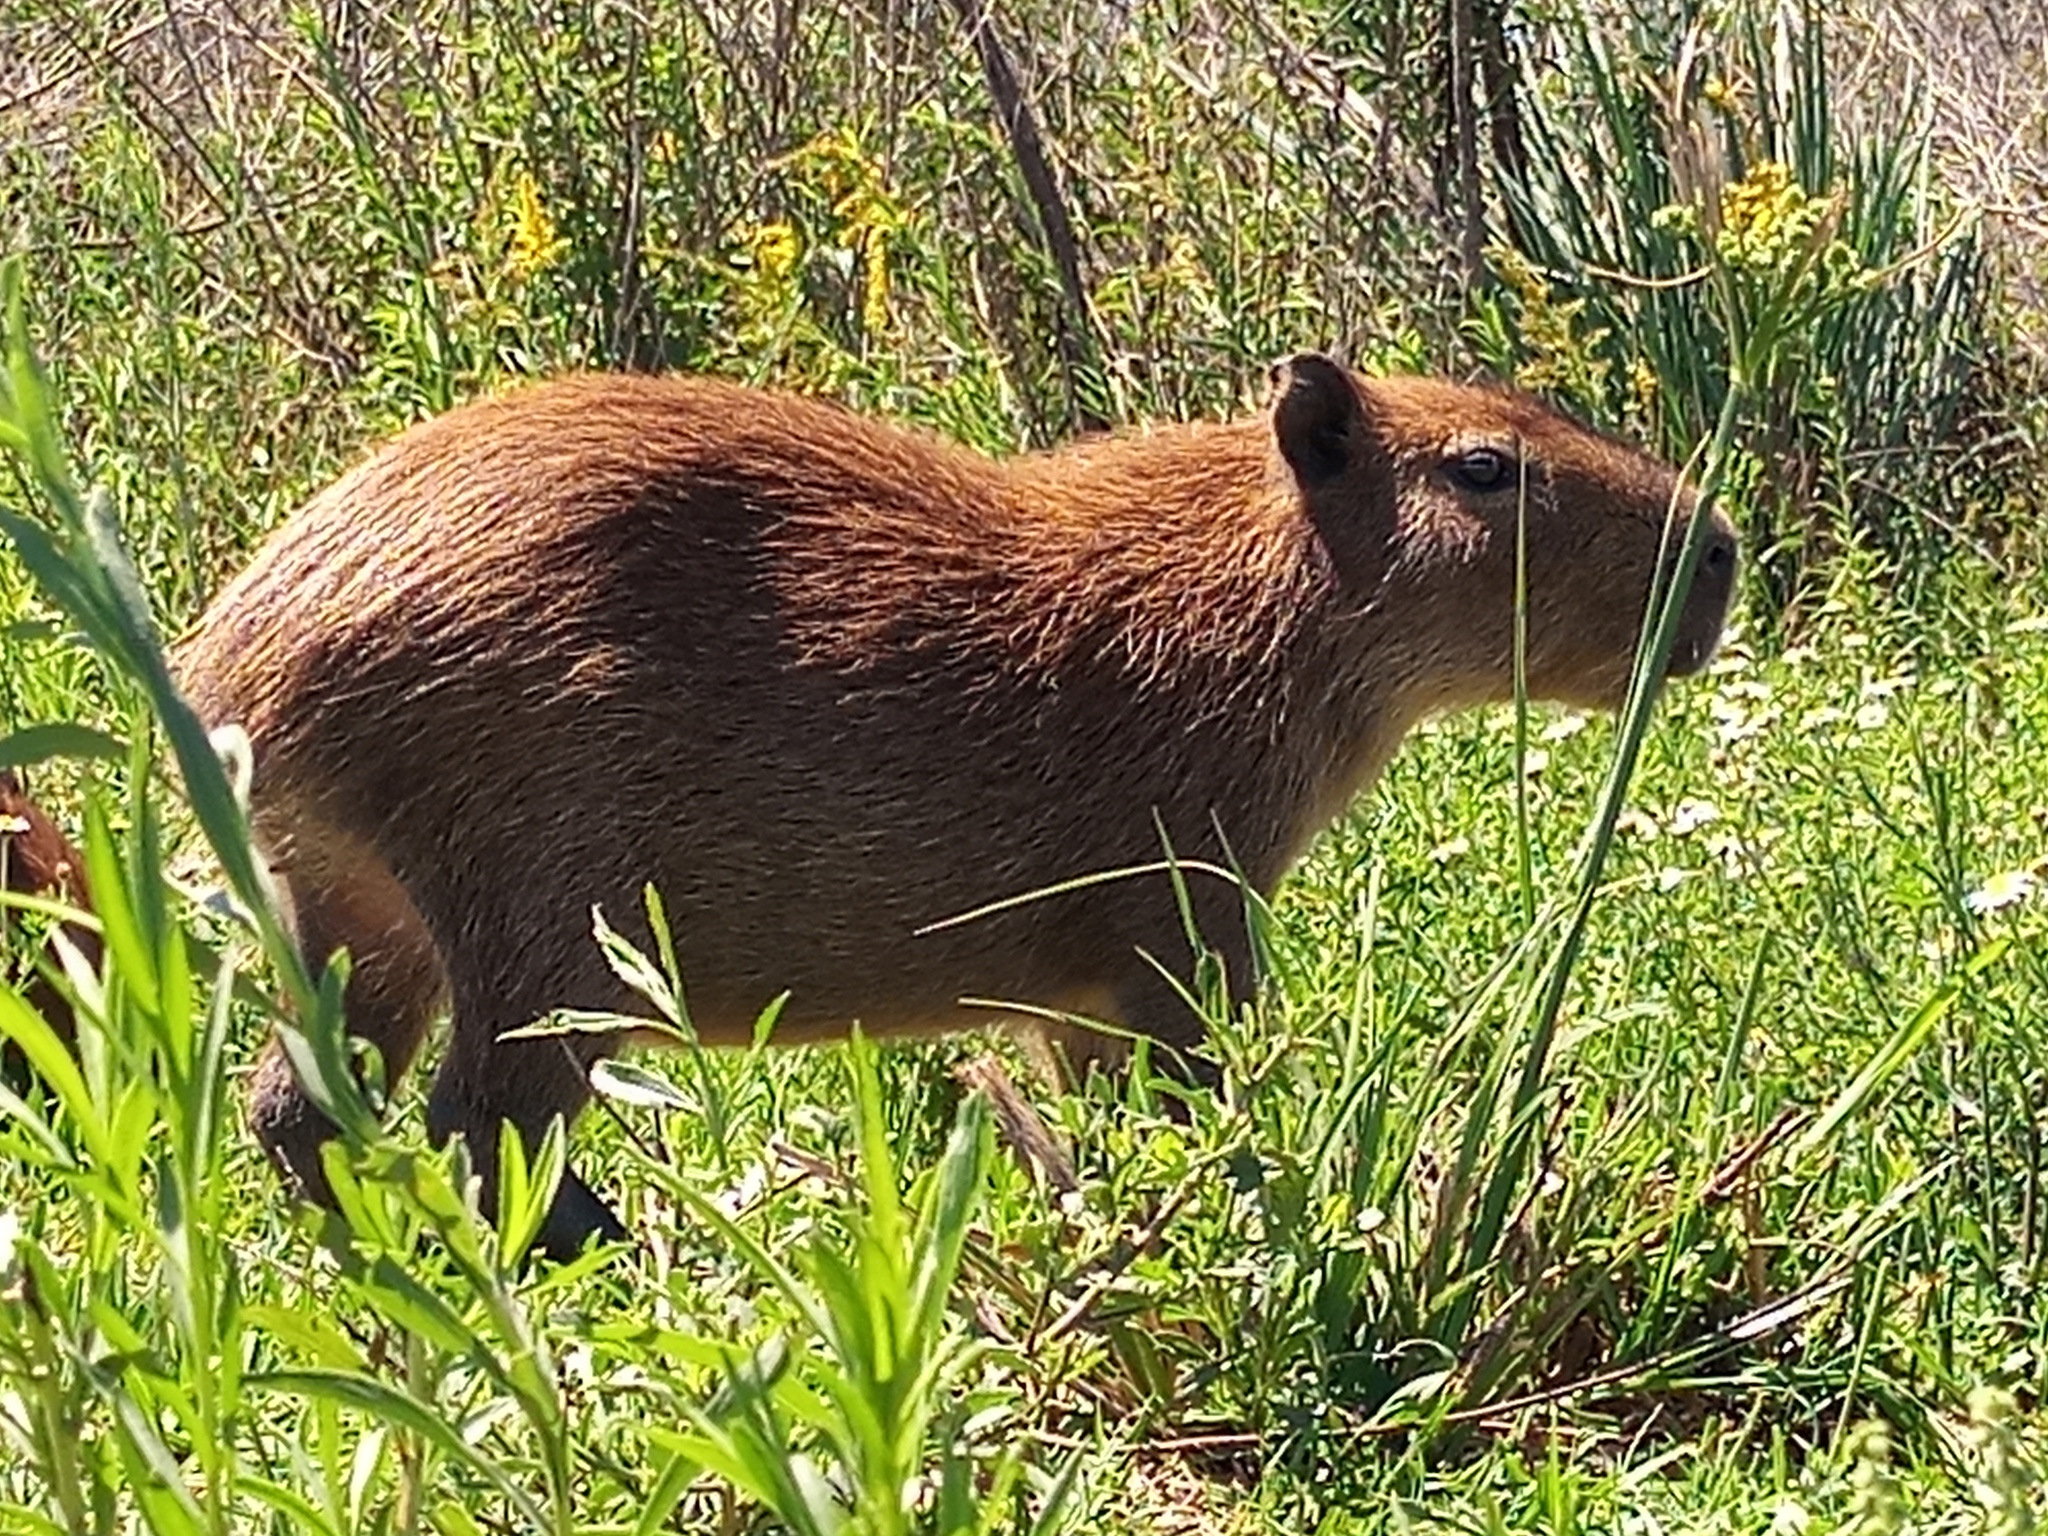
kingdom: Animalia
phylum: Chordata
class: Mammalia
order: Rodentia
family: Caviidae
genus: Hydrochoerus
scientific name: Hydrochoerus hydrochaeris
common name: Capybara
